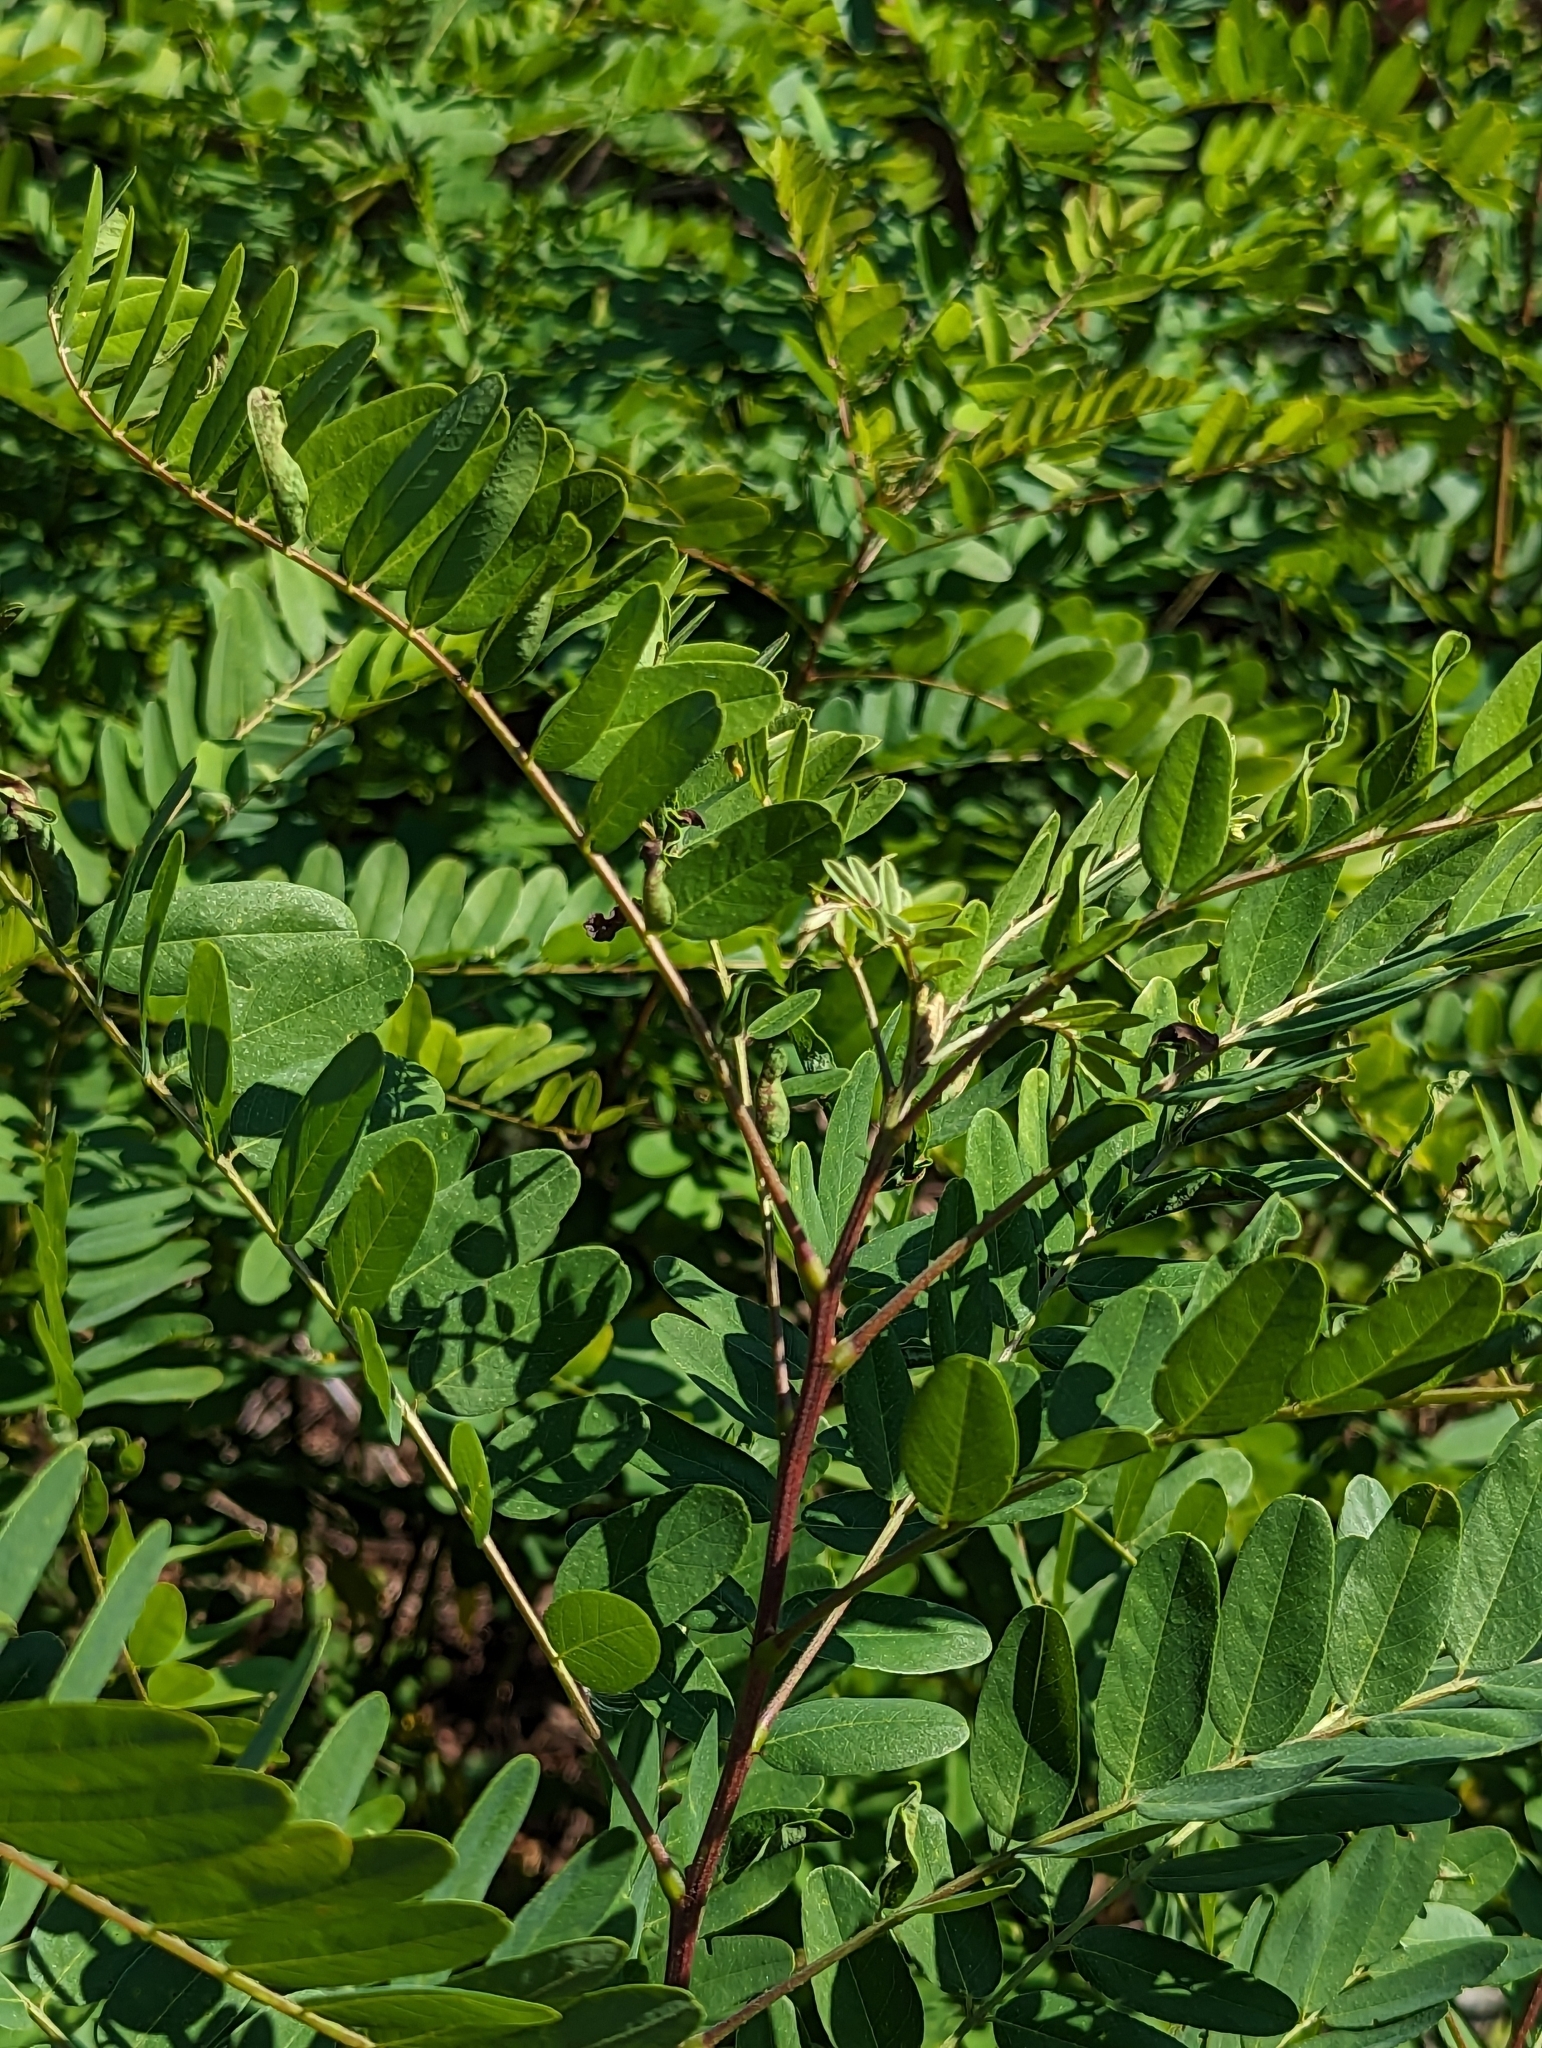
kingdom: Plantae
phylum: Tracheophyta
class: Magnoliopsida
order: Fabales
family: Fabaceae
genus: Amorpha
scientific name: Amorpha fruticosa
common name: False indigo
